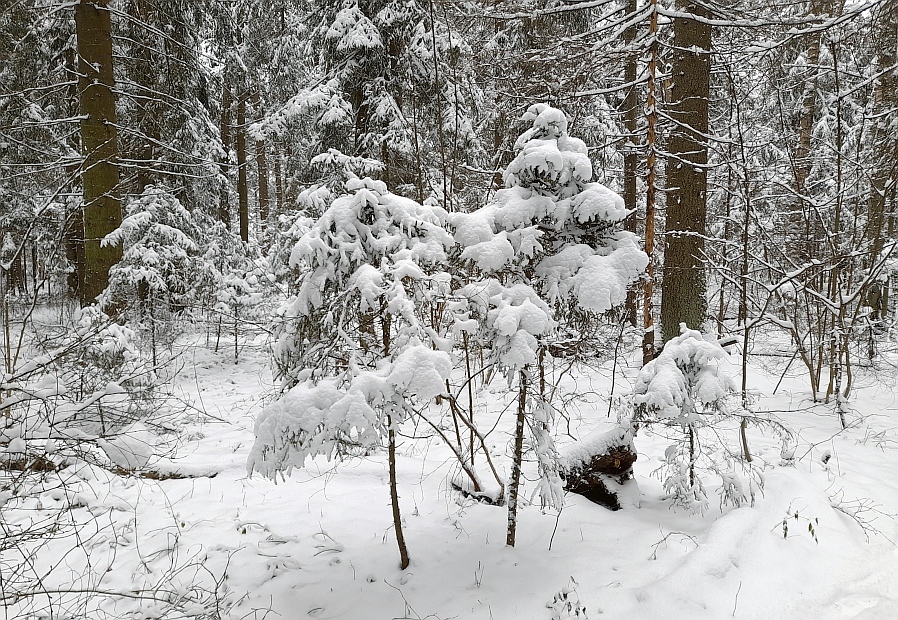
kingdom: Plantae
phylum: Tracheophyta
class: Pinopsida
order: Pinales
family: Pinaceae
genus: Picea
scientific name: Picea abies
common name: Norway spruce
